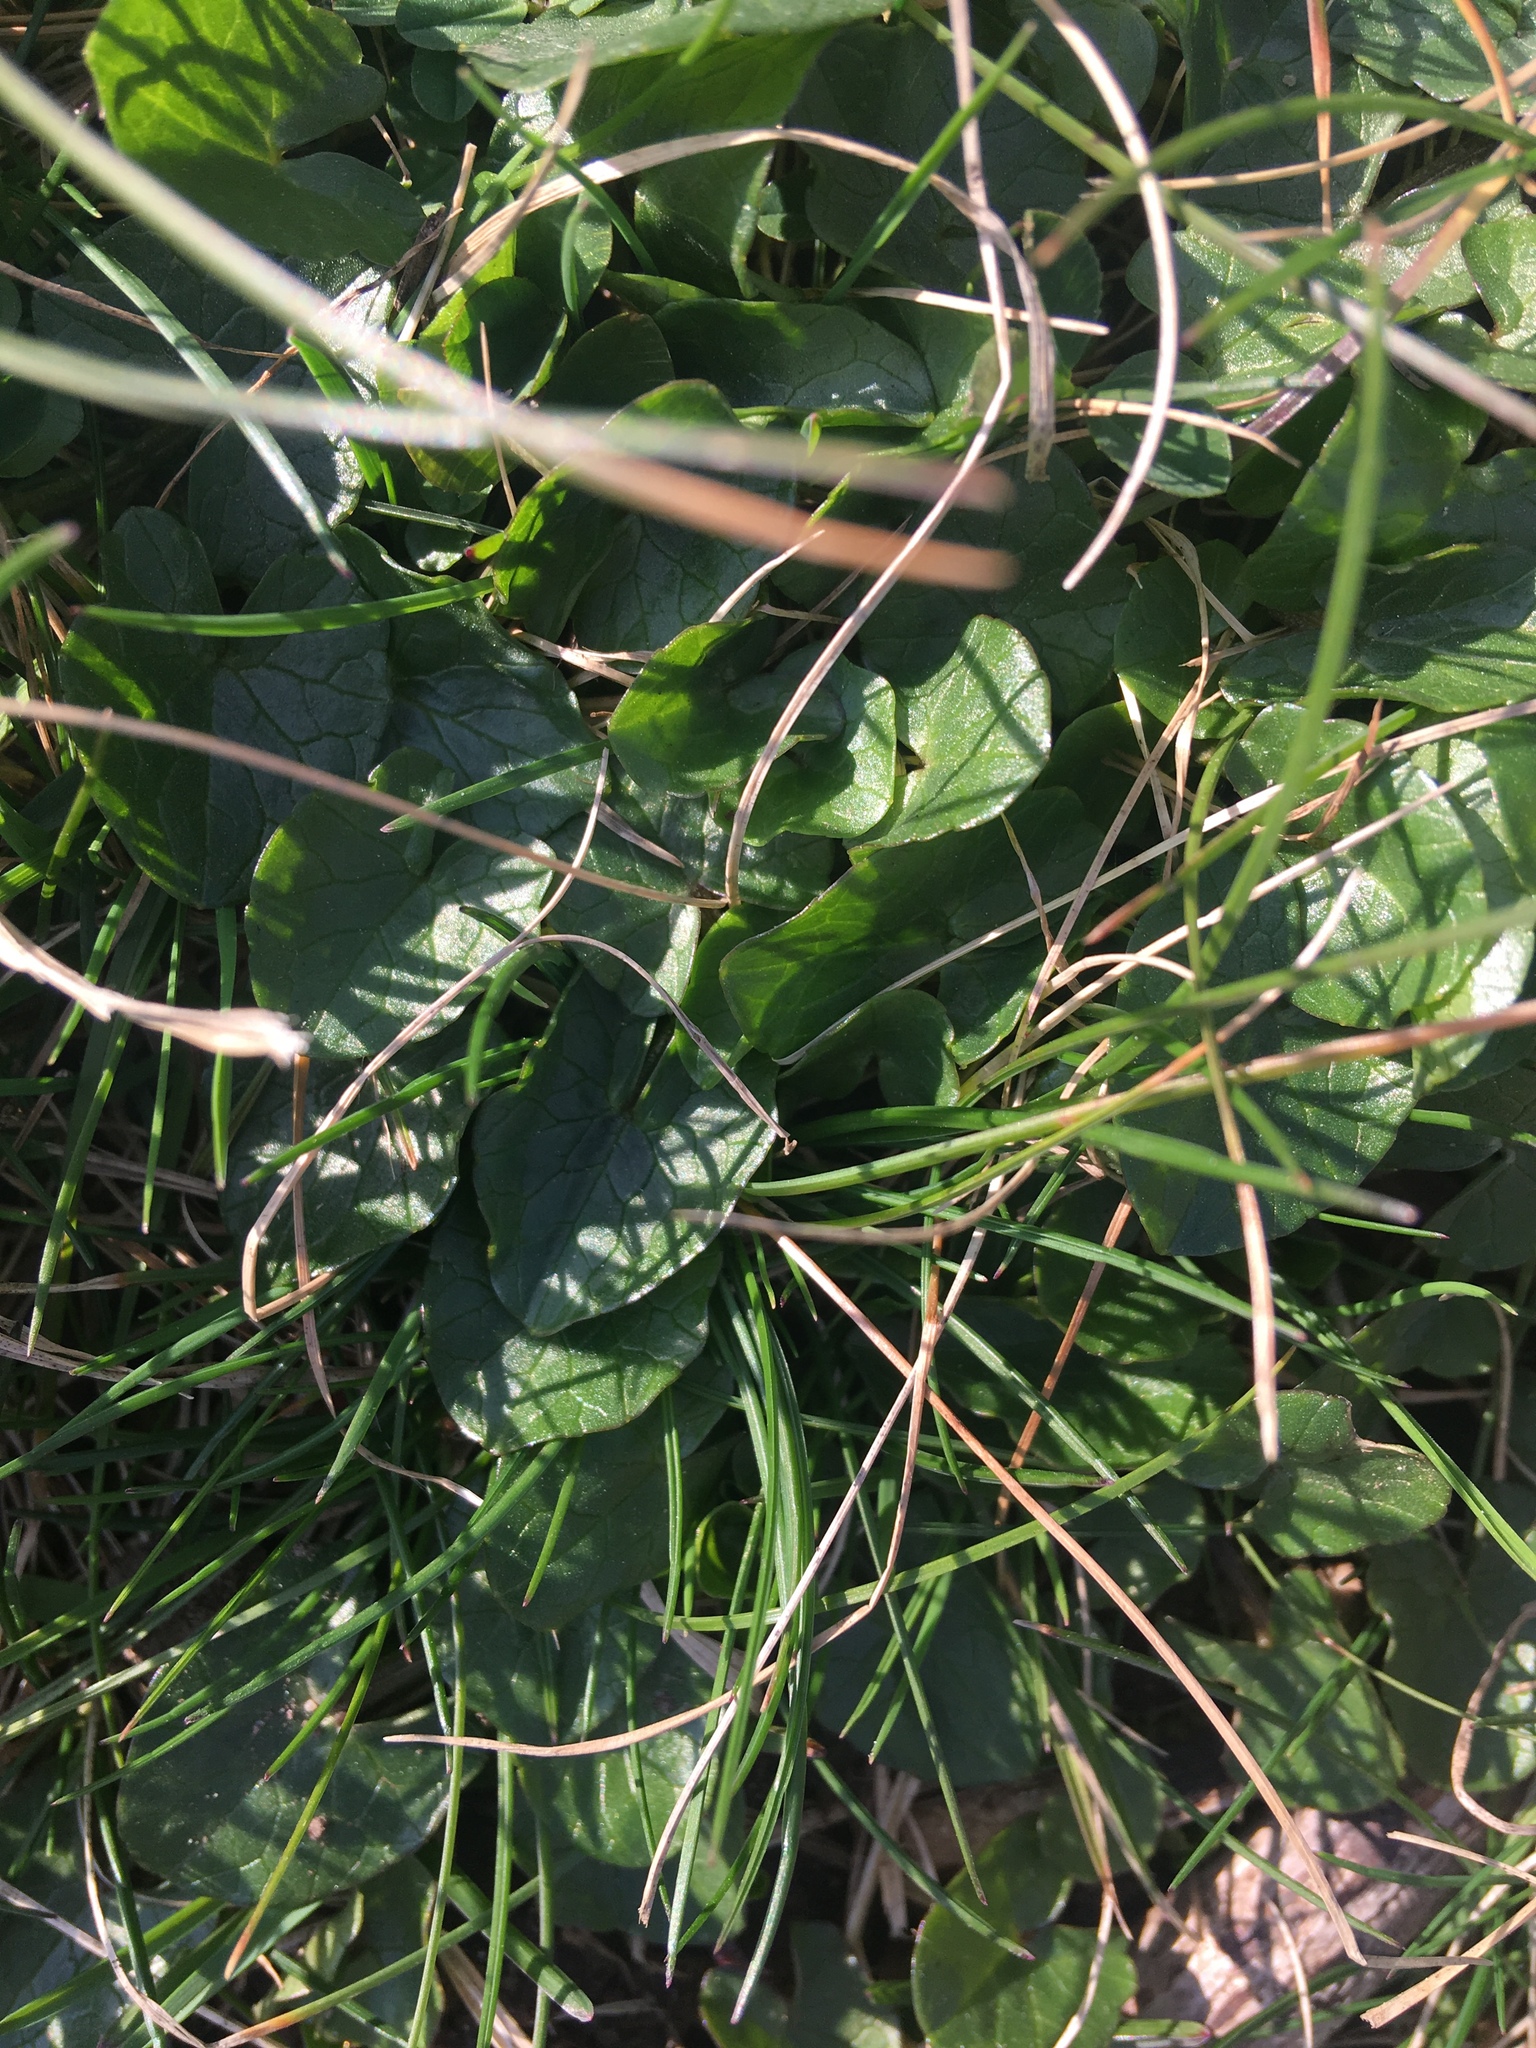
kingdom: Plantae
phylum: Tracheophyta
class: Magnoliopsida
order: Ranunculales
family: Ranunculaceae
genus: Ficaria
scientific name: Ficaria verna
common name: Lesser celandine
